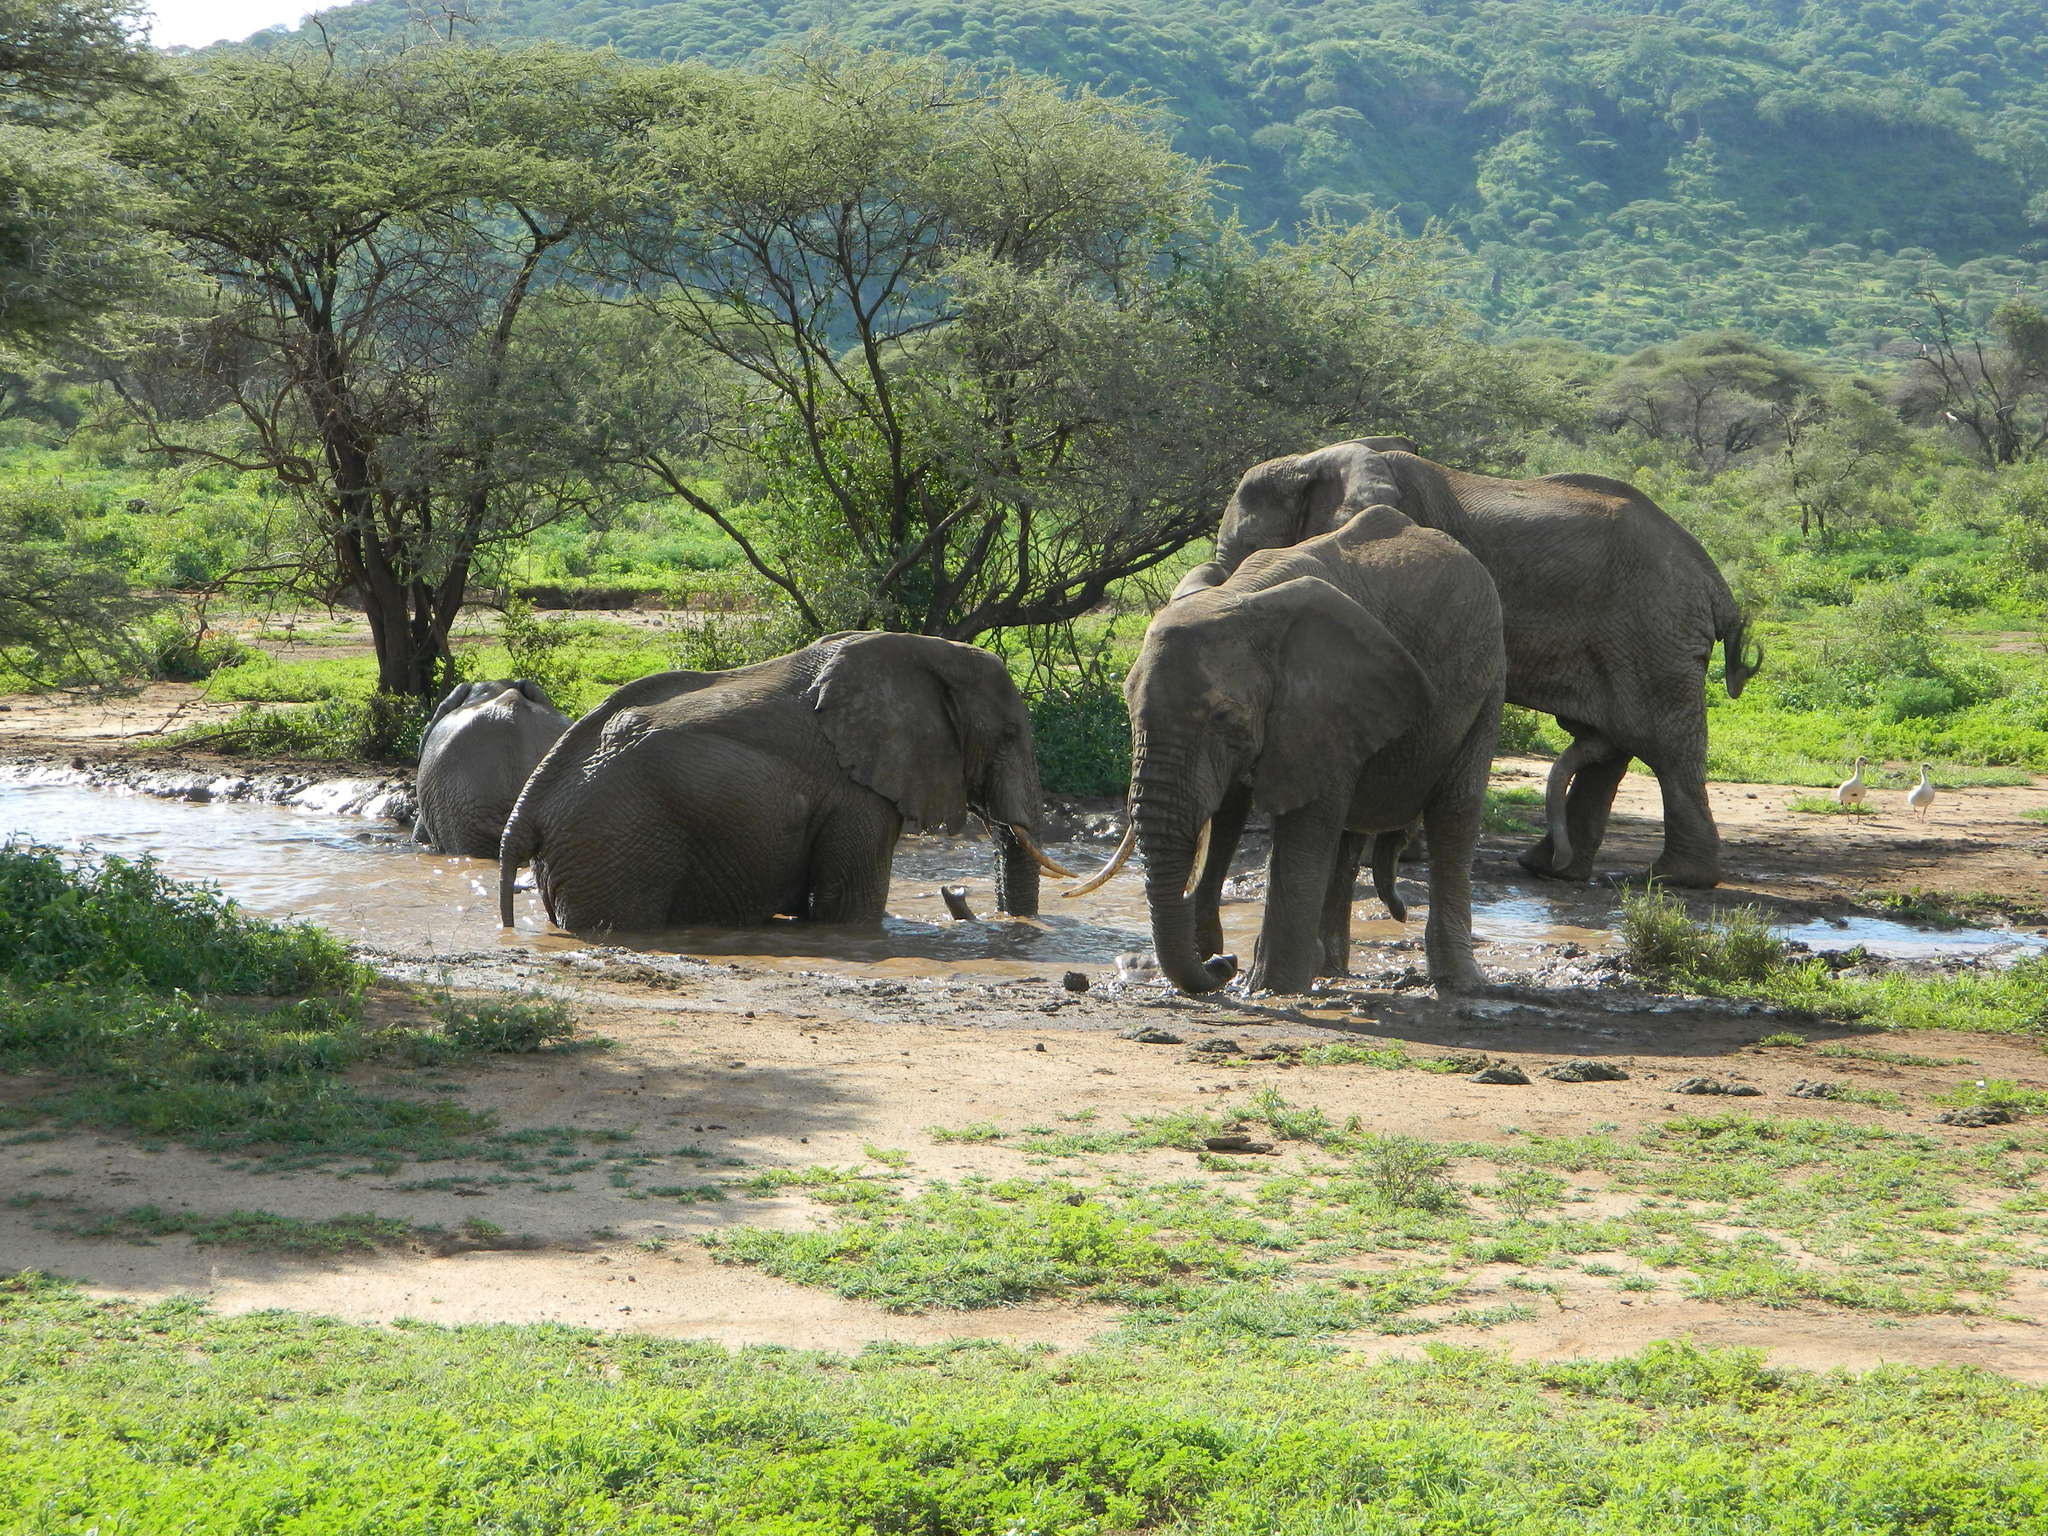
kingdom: Animalia
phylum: Chordata
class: Mammalia
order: Proboscidea
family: Elephantidae
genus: Loxodonta
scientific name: Loxodonta africana
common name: African elephant
